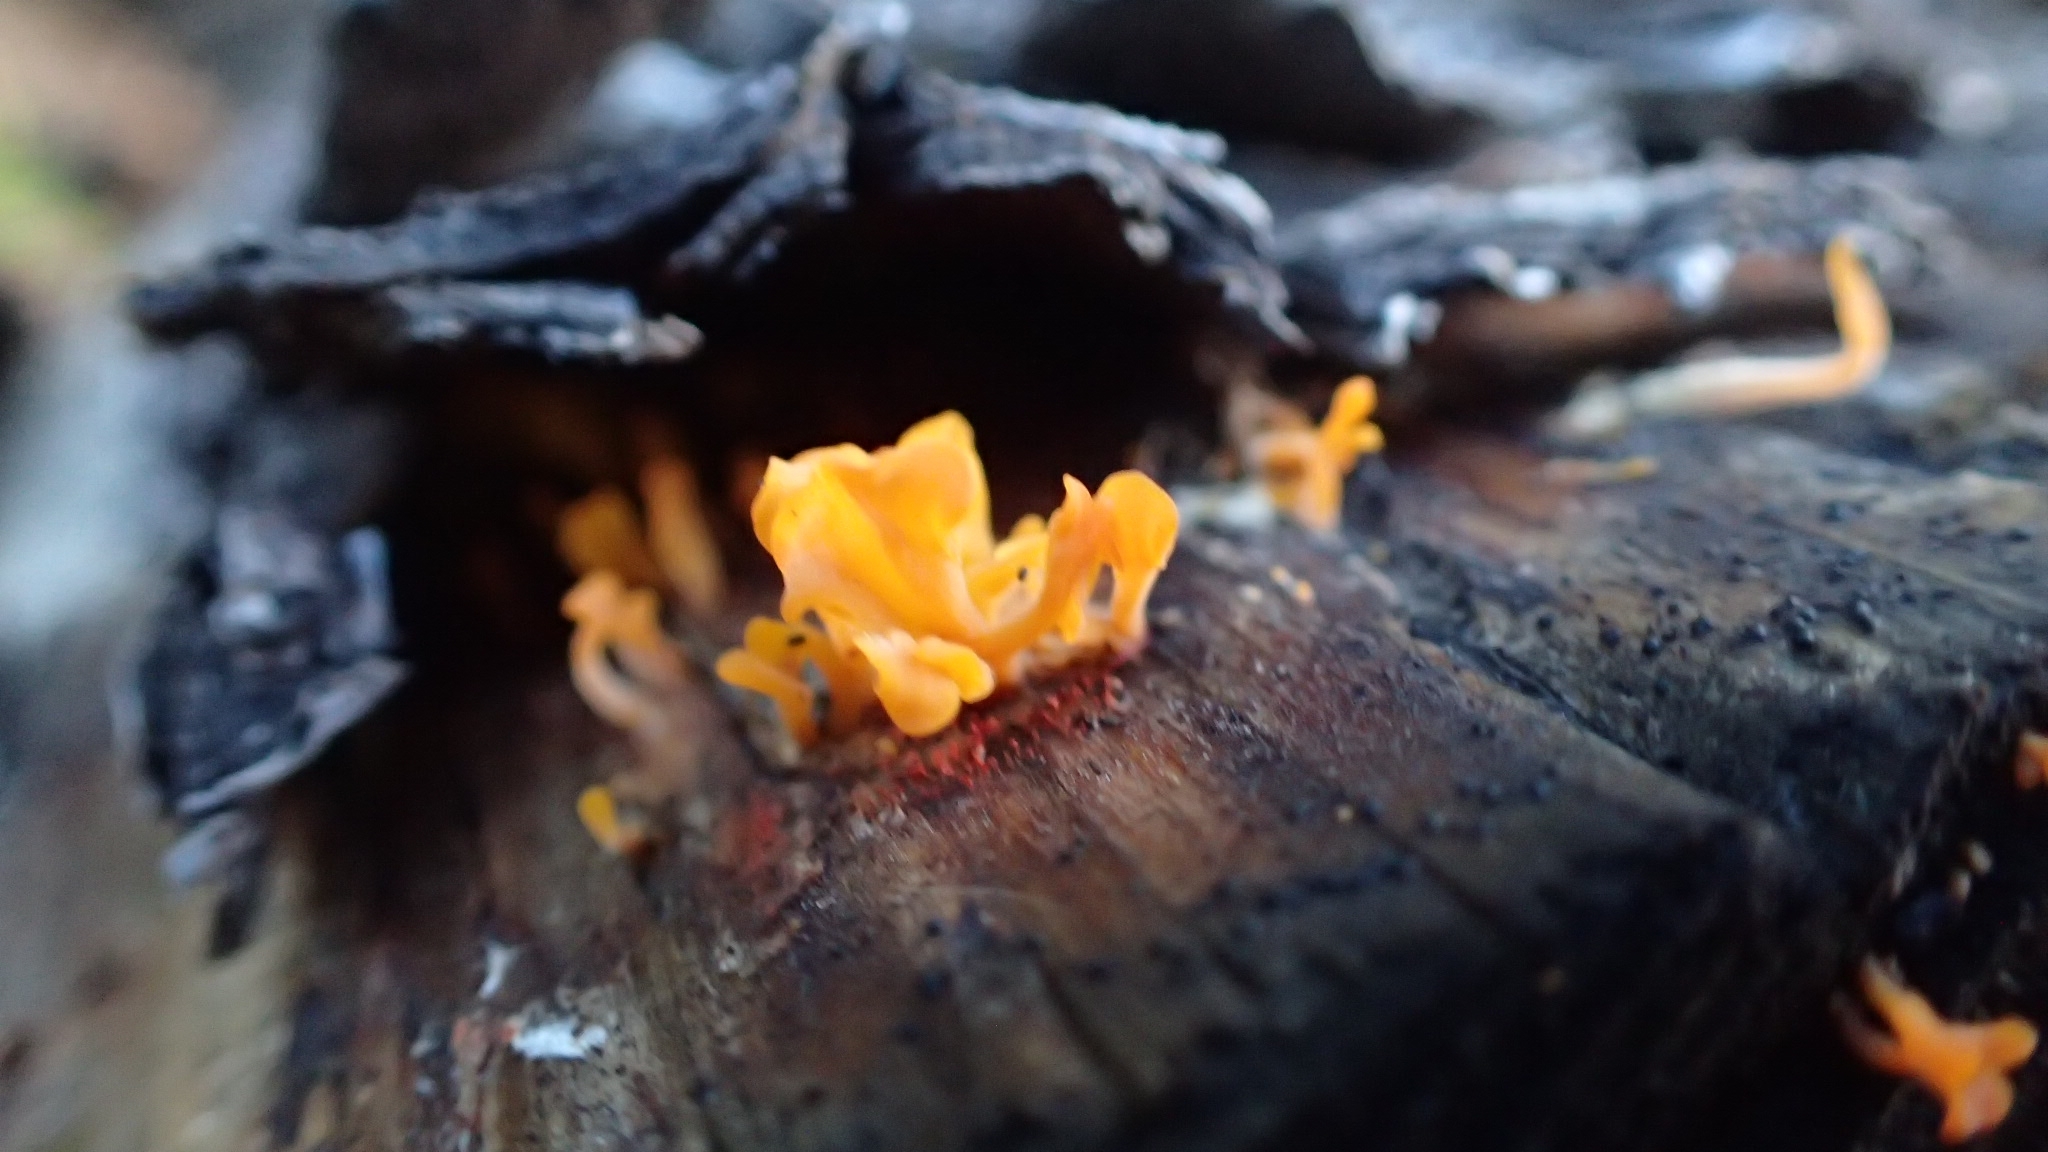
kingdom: Fungi
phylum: Basidiomycota
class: Dacrymycetes
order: Dacrymycetales
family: Dacrymycetaceae
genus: Dacrymyces
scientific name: Dacrymyces spathularius
